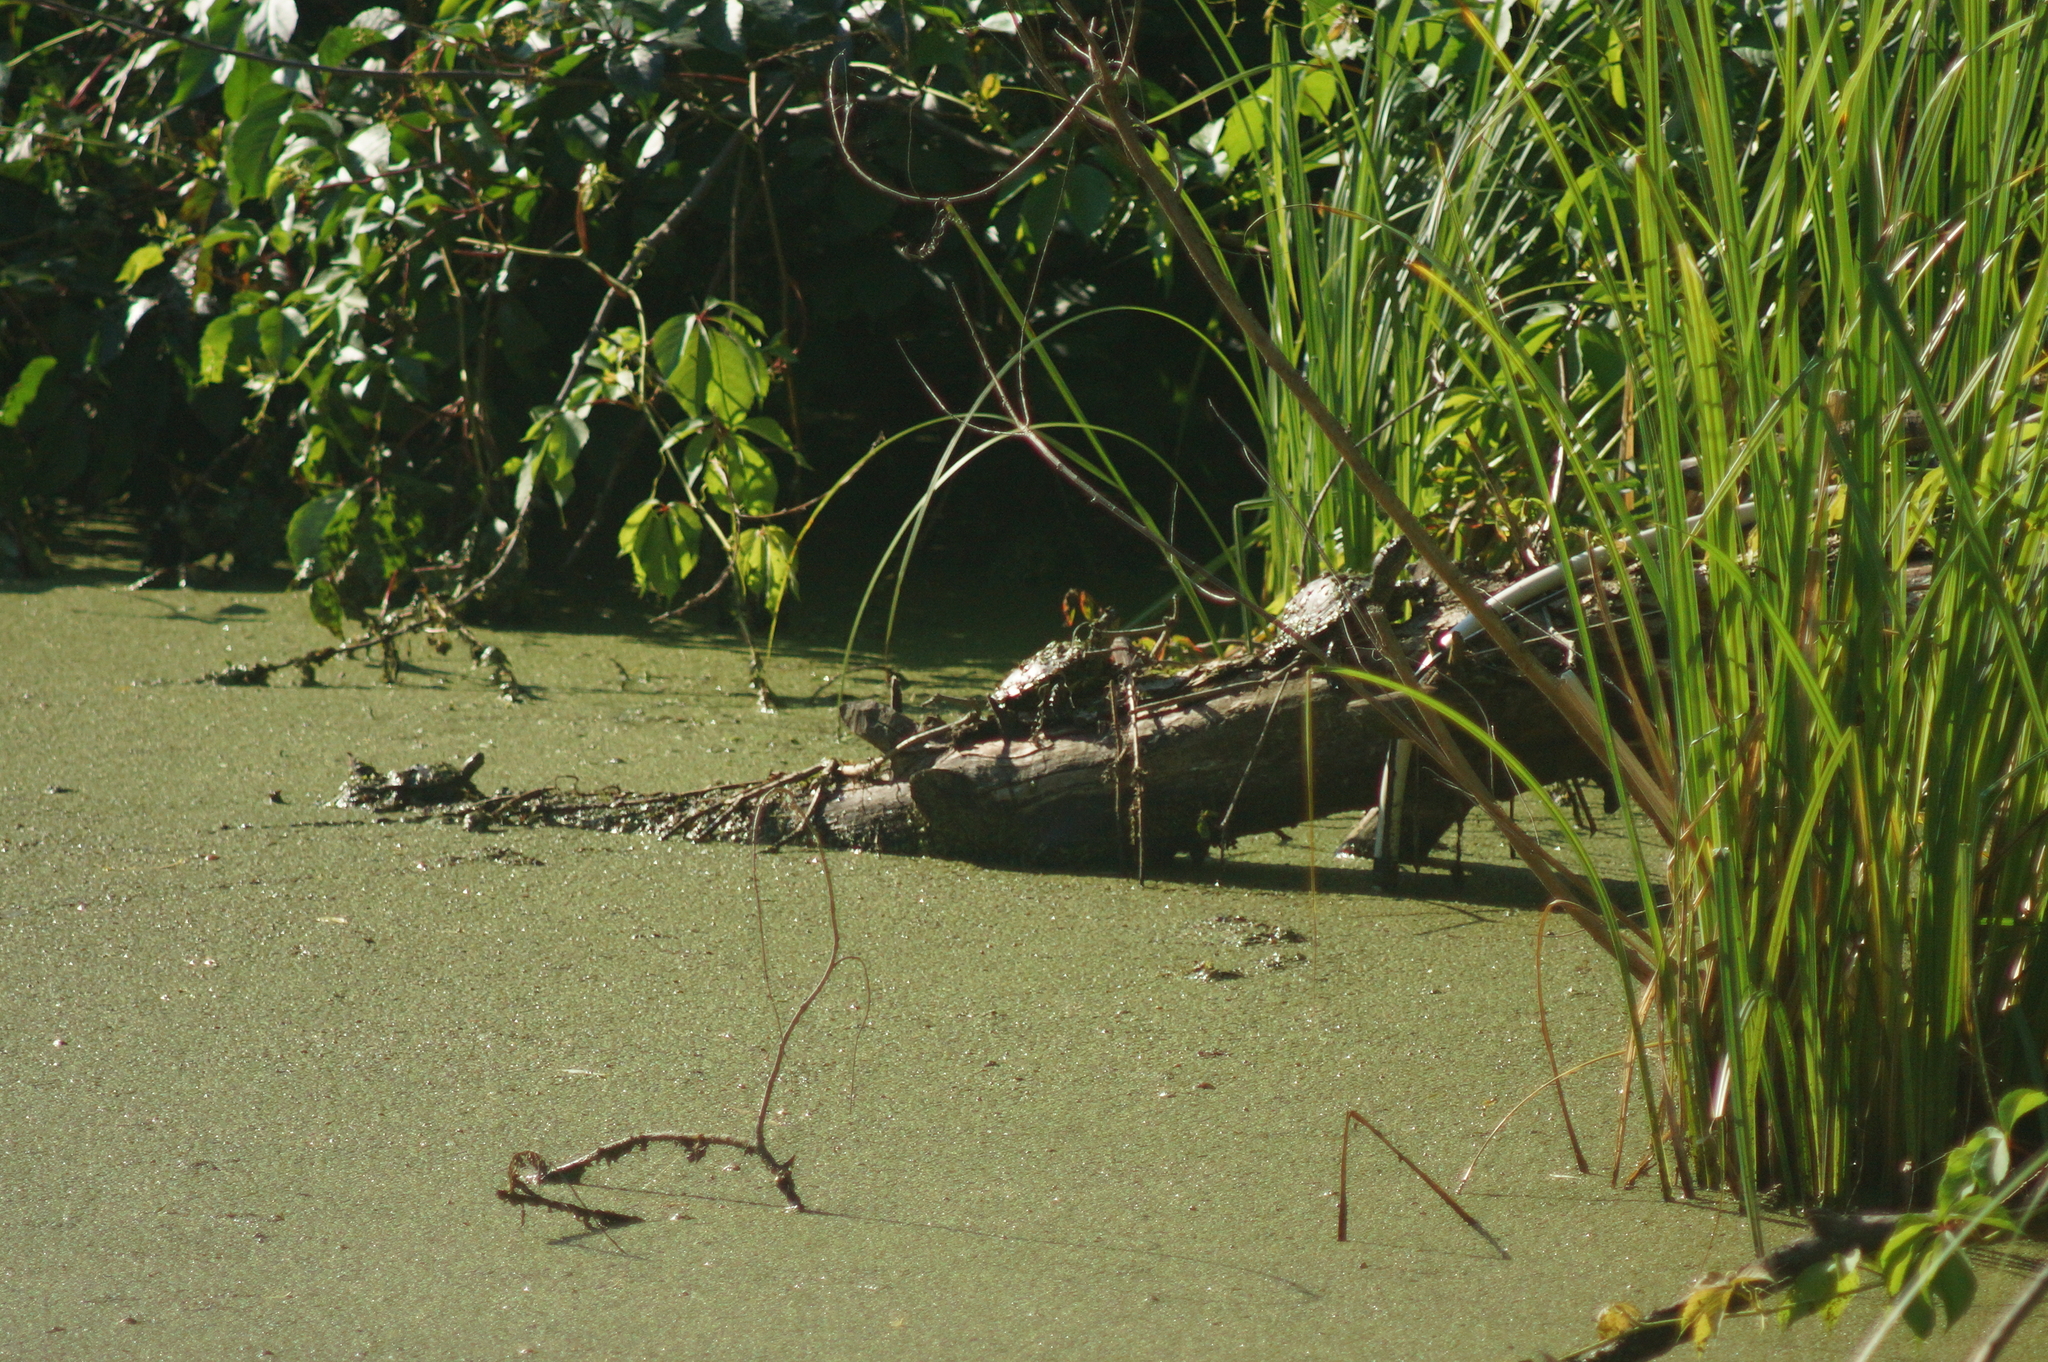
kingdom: Animalia
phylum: Chordata
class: Testudines
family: Emydidae
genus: Emys
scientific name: Emys orbicularis
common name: European pond turtle
